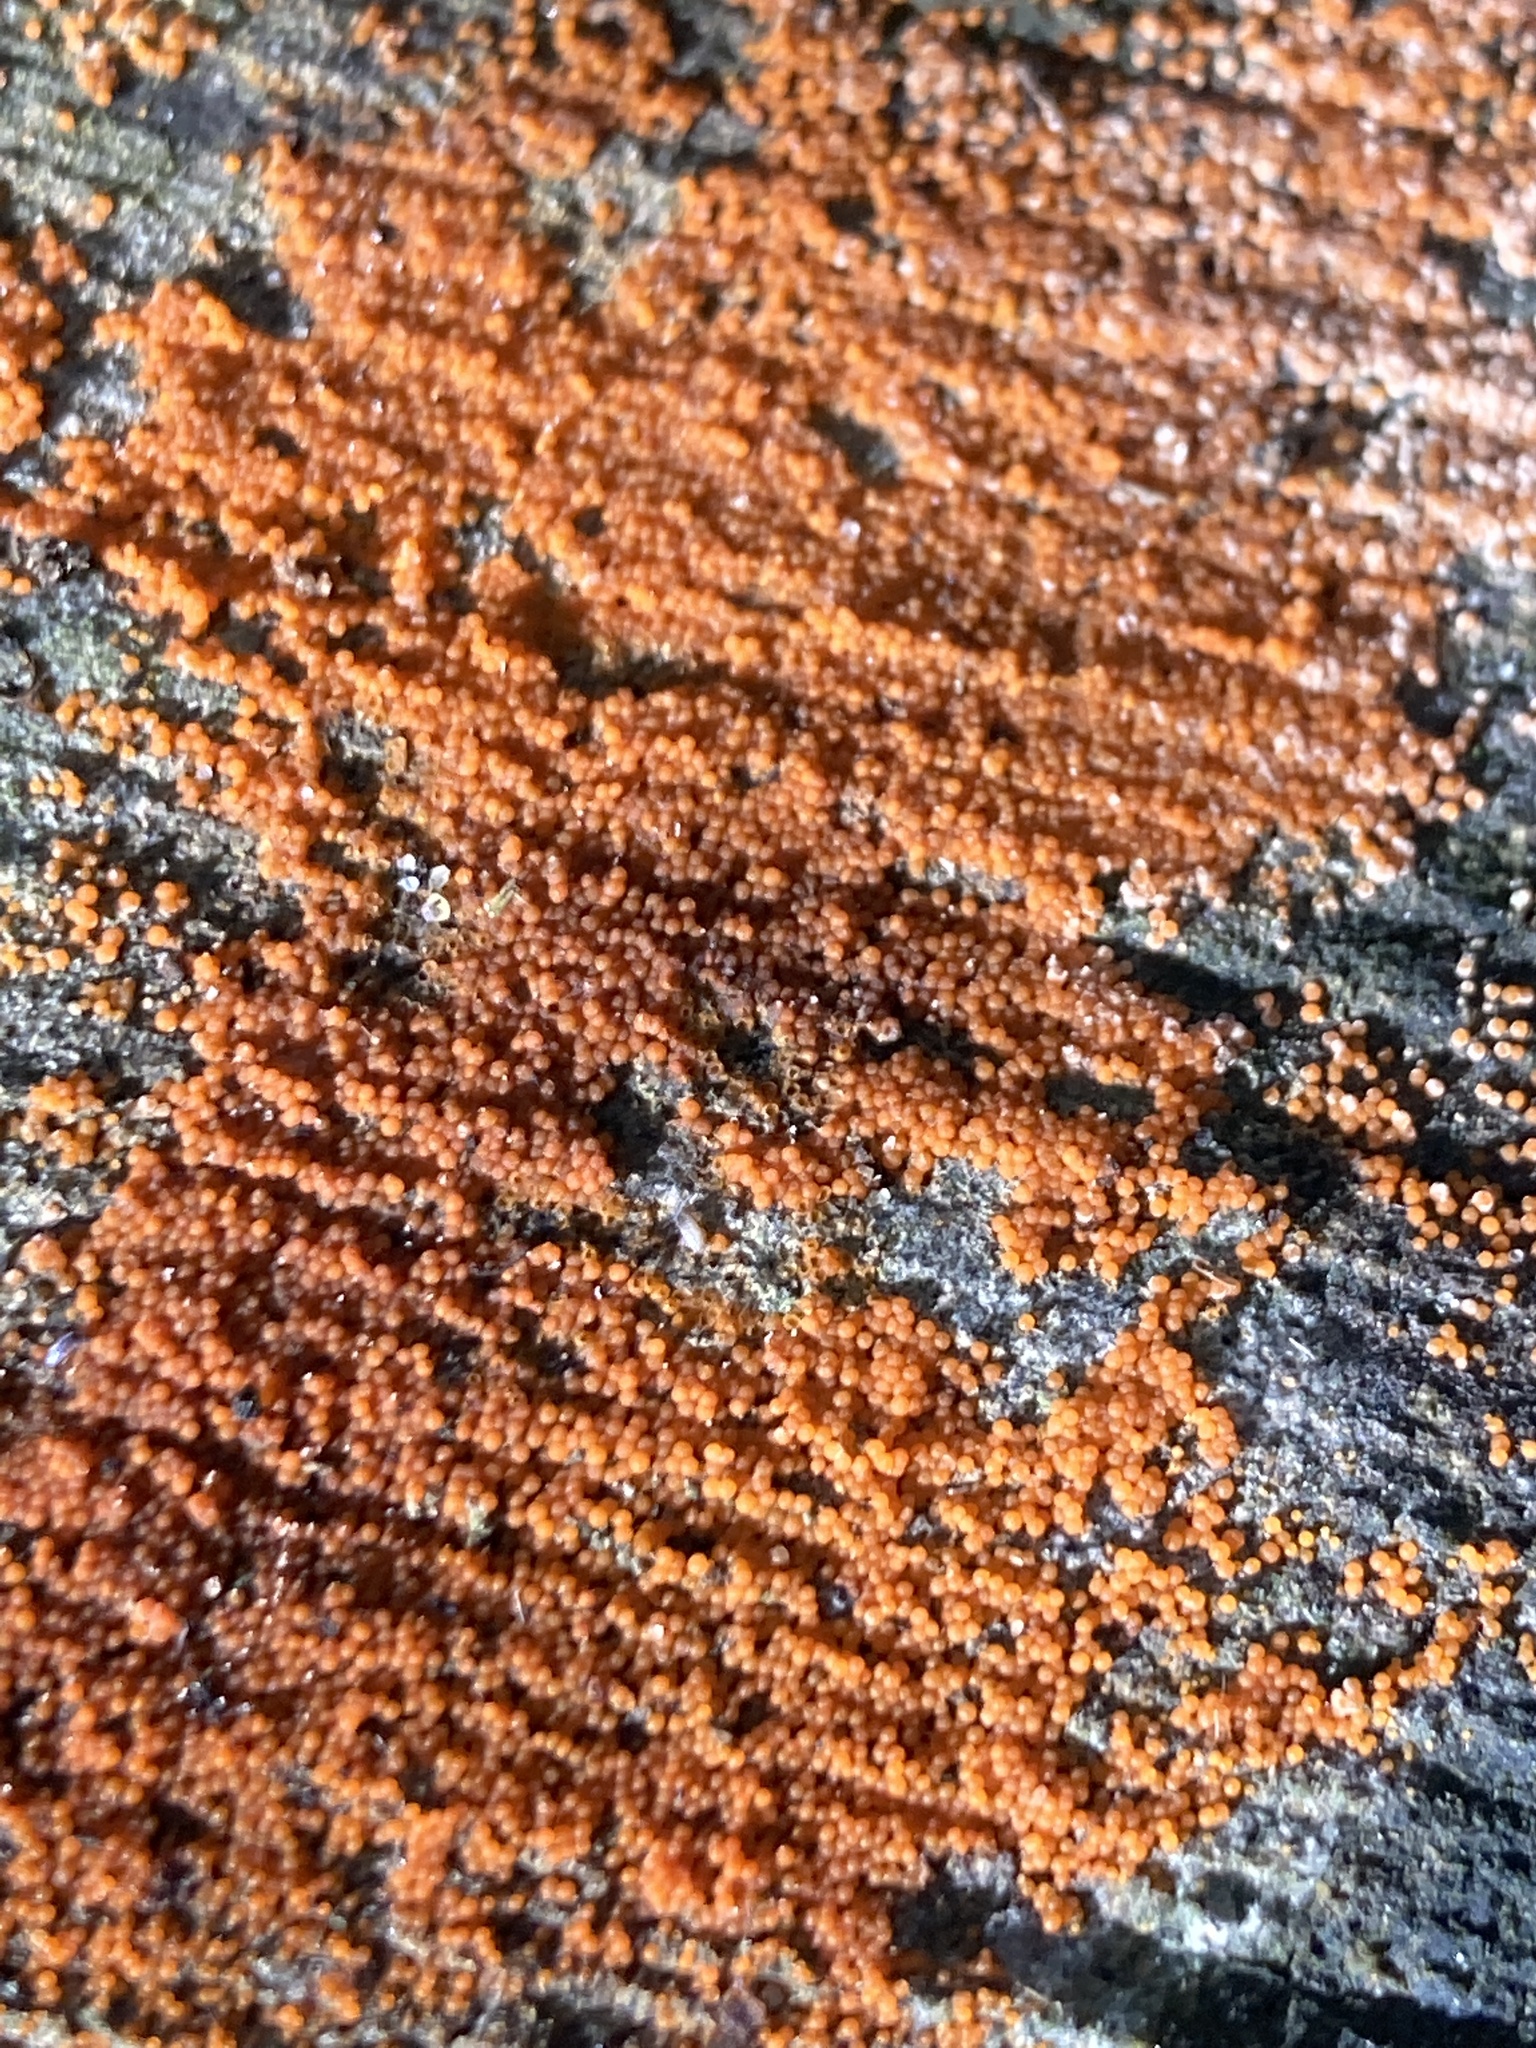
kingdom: Fungi
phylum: Ascomycota
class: Sordariomycetes
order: Hypocreales
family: Nectriaceae
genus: Hydropisphaera
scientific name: Hydropisphaera peziza
